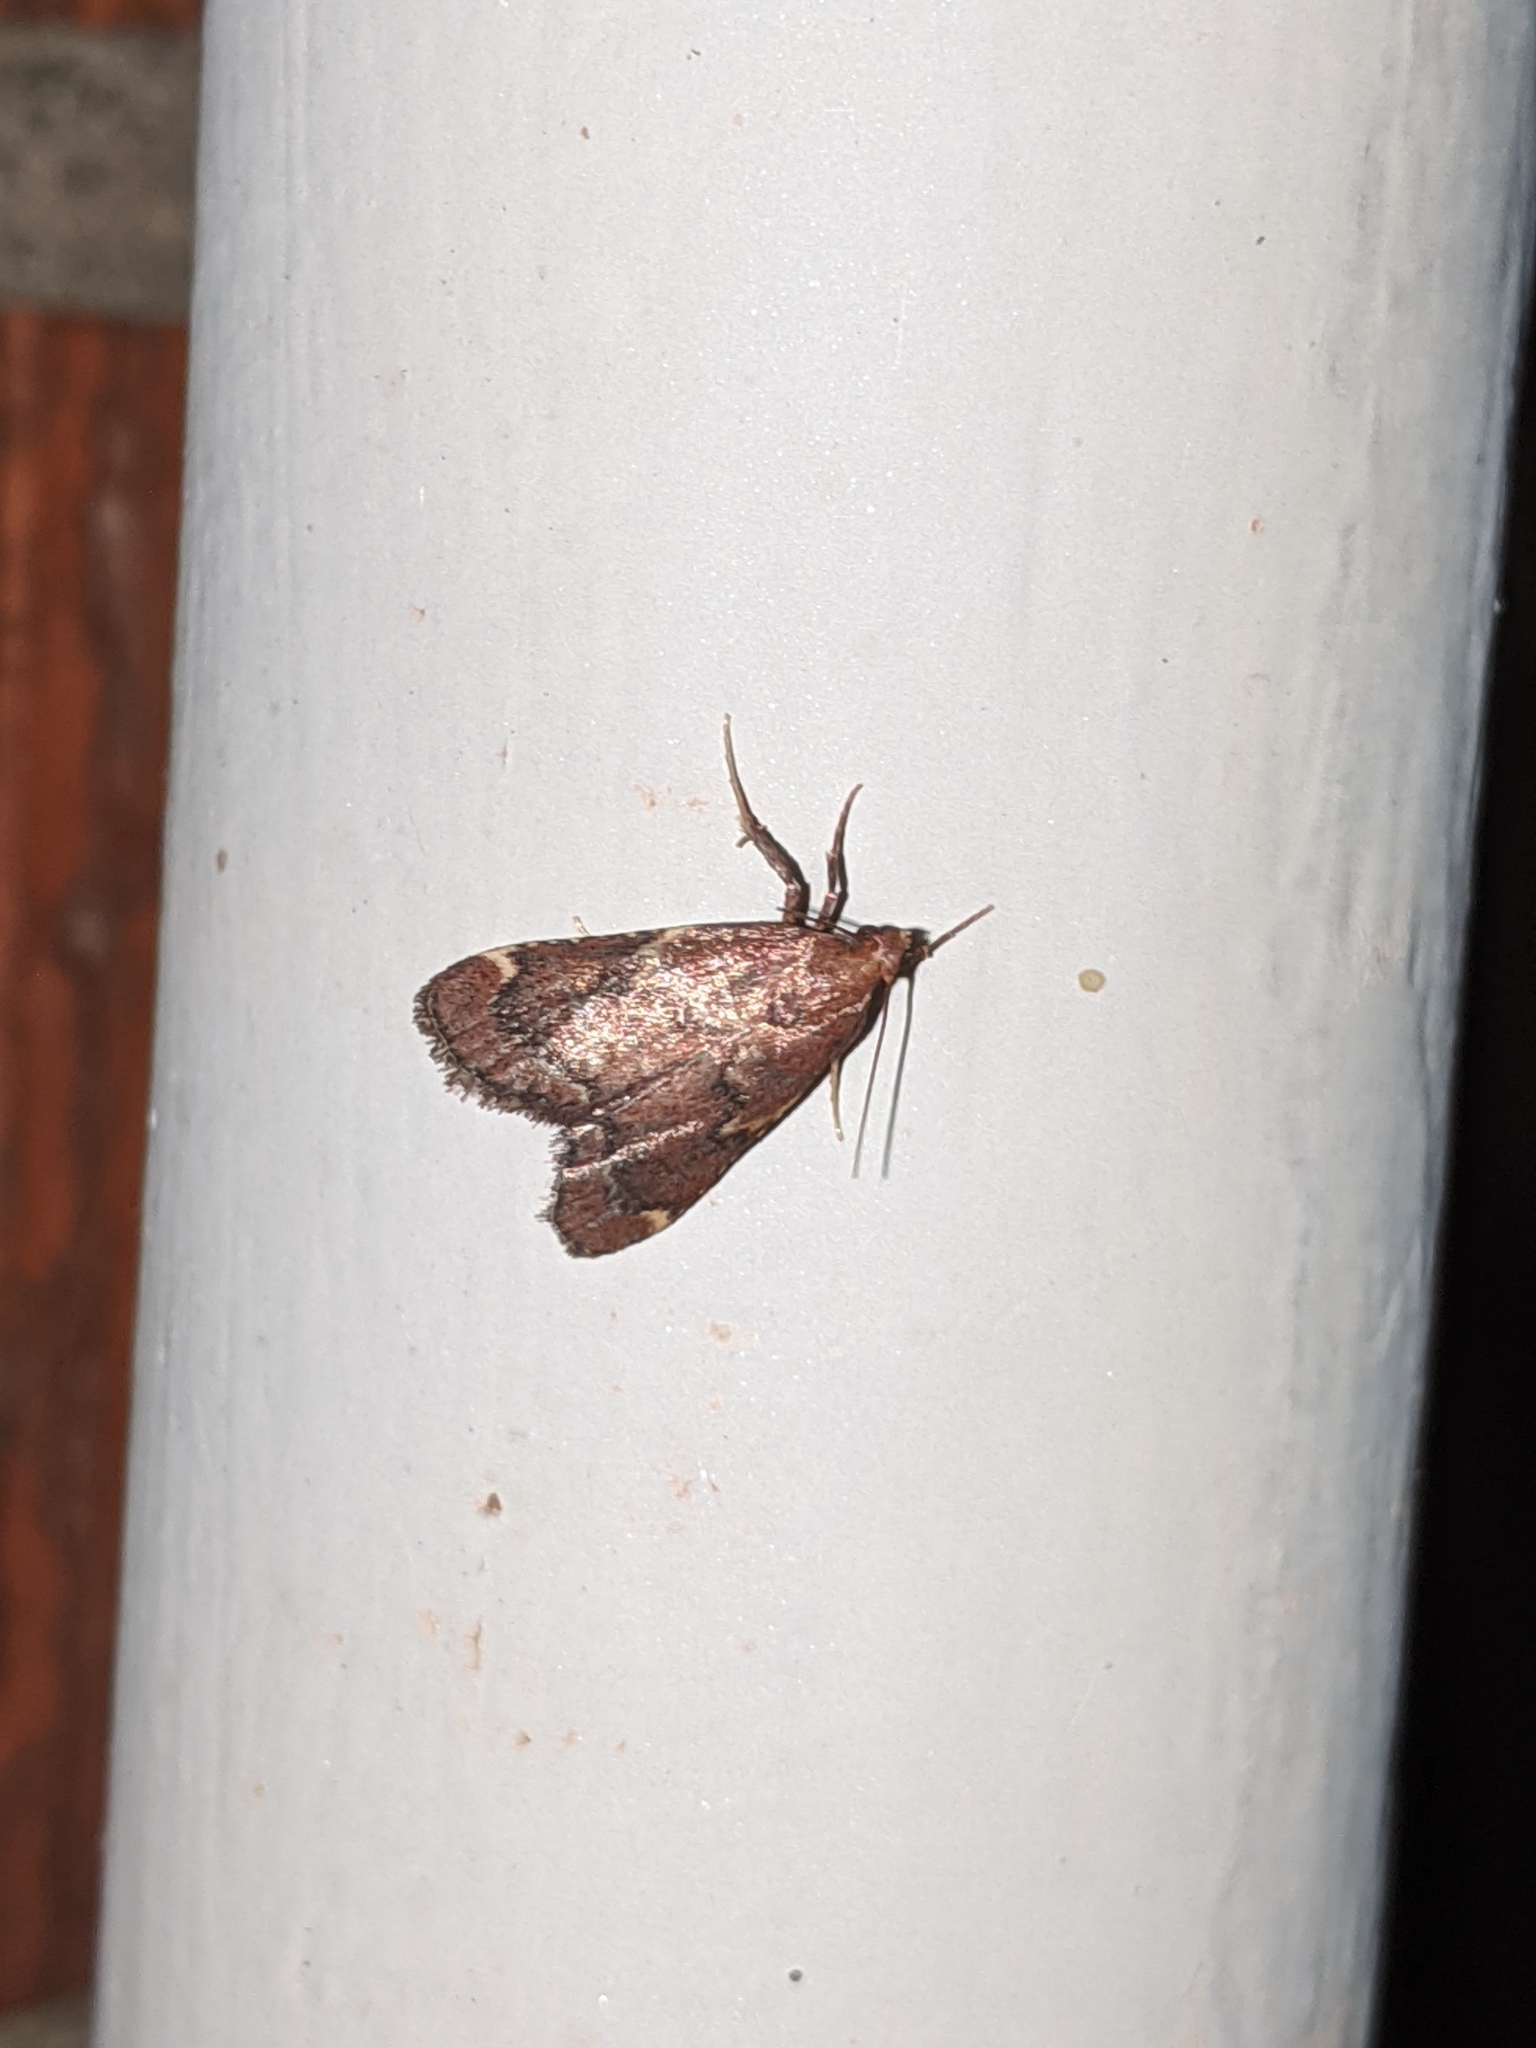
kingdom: Animalia
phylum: Arthropoda
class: Insecta
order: Lepidoptera
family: Pyralidae
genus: Hypsopygia
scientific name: Hypsopygia intermedialis
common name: Red-shawled moth
